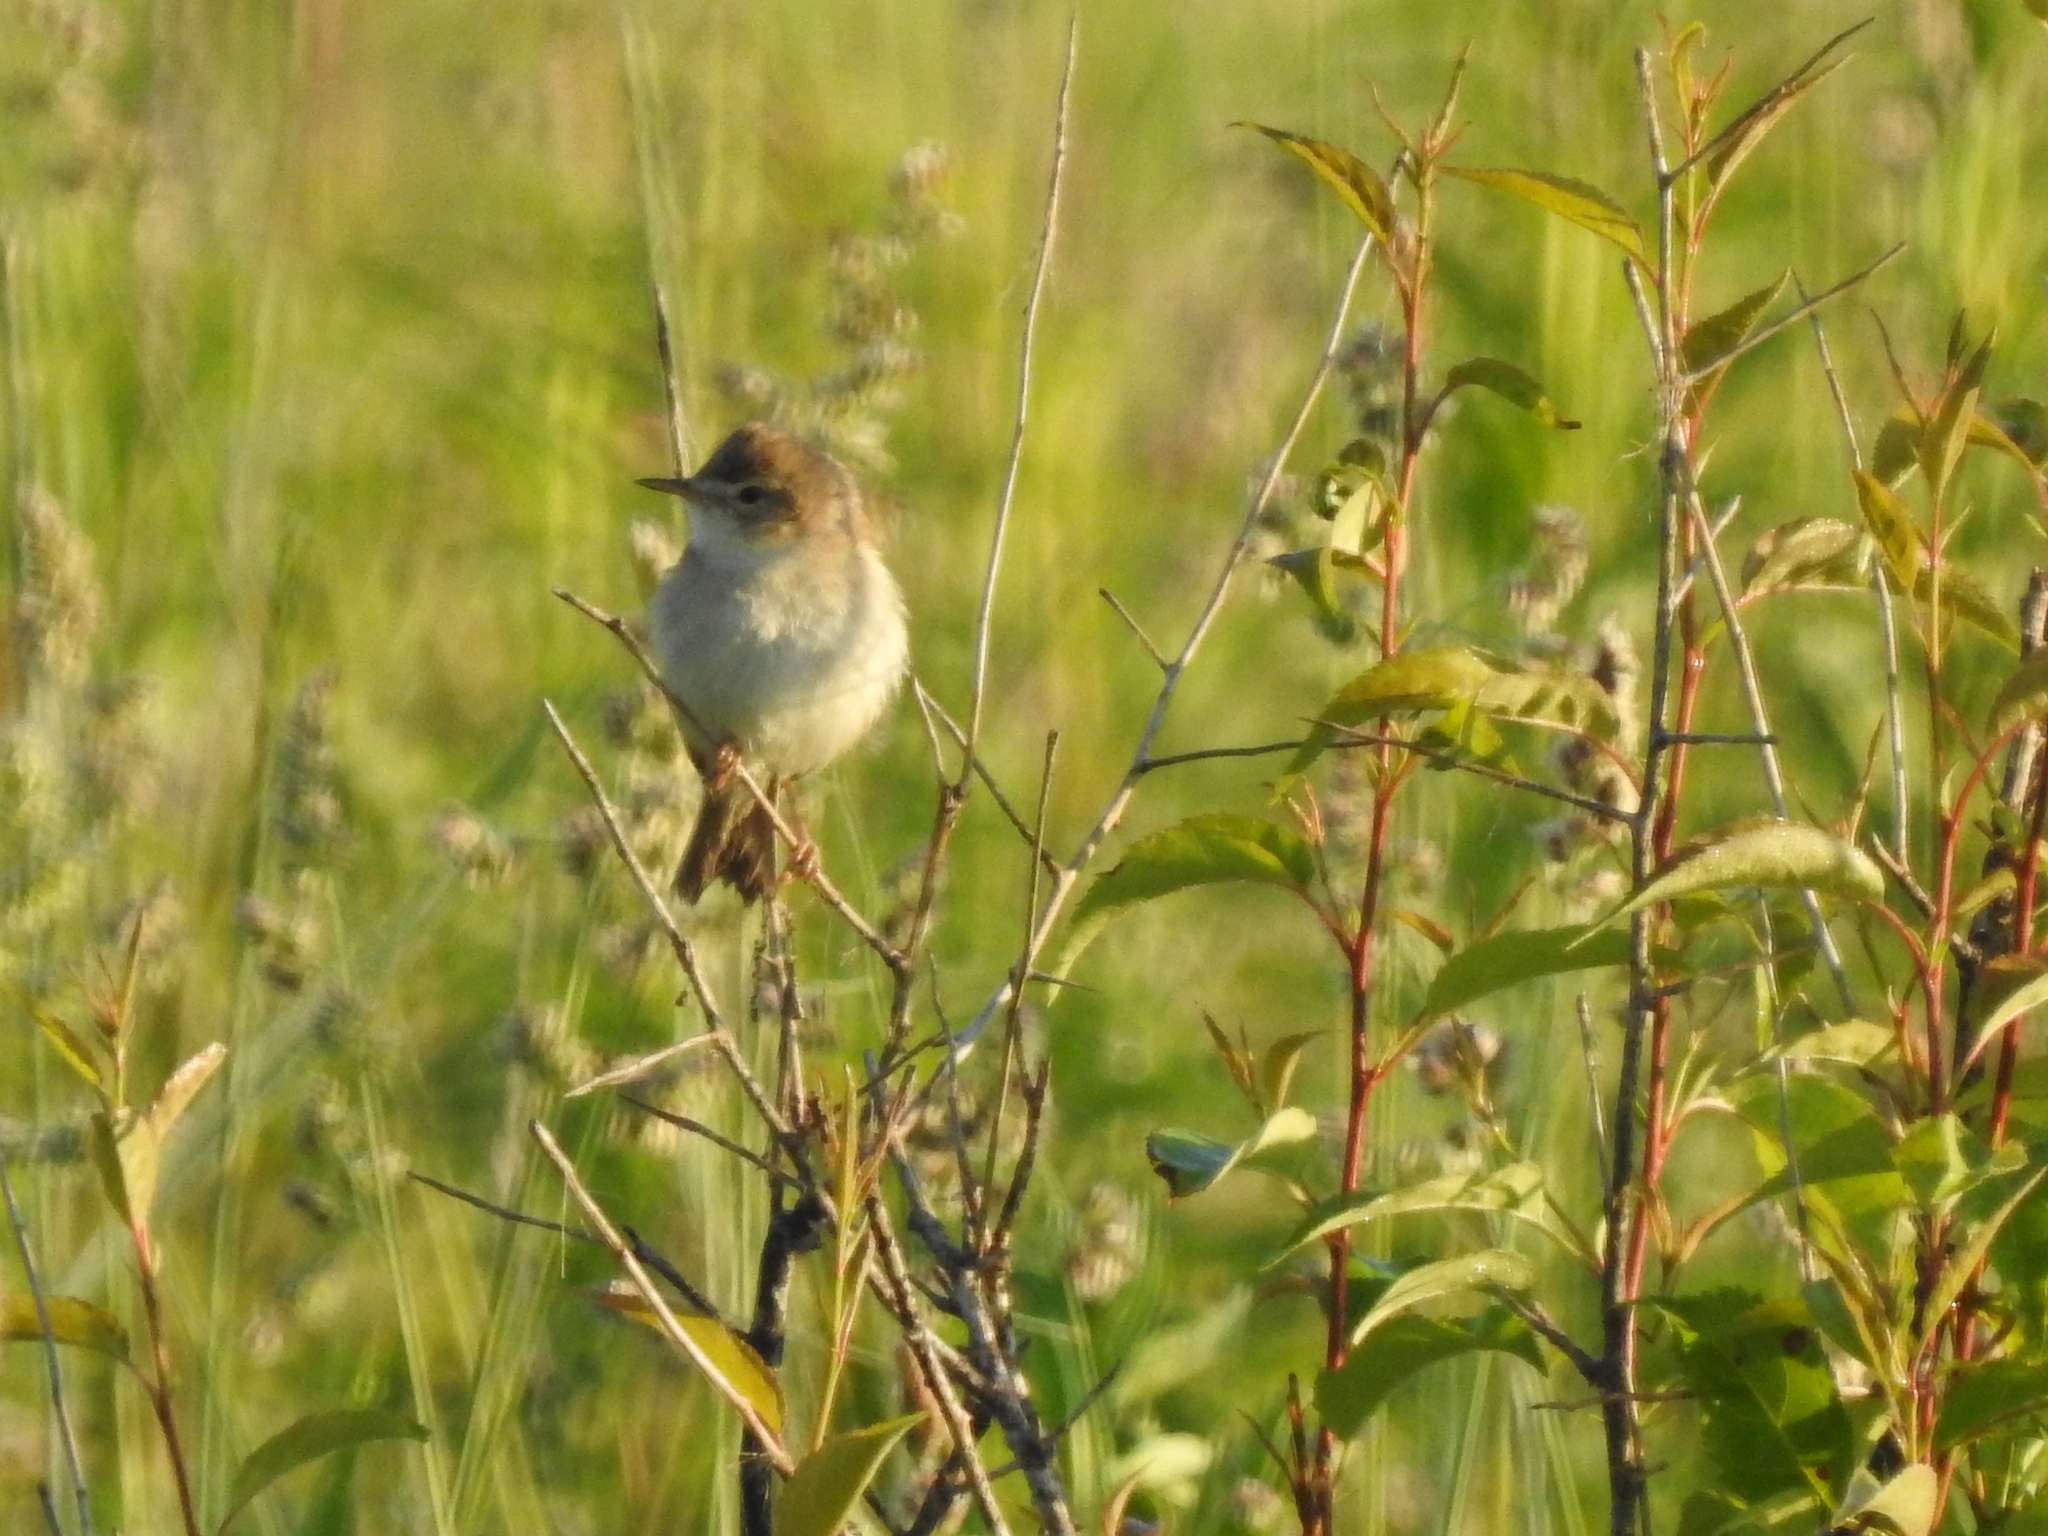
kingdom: Animalia
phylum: Chordata
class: Aves
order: Passeriformes
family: Acrocephalidae
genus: Iduna
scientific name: Iduna caligata
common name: Booted warbler
